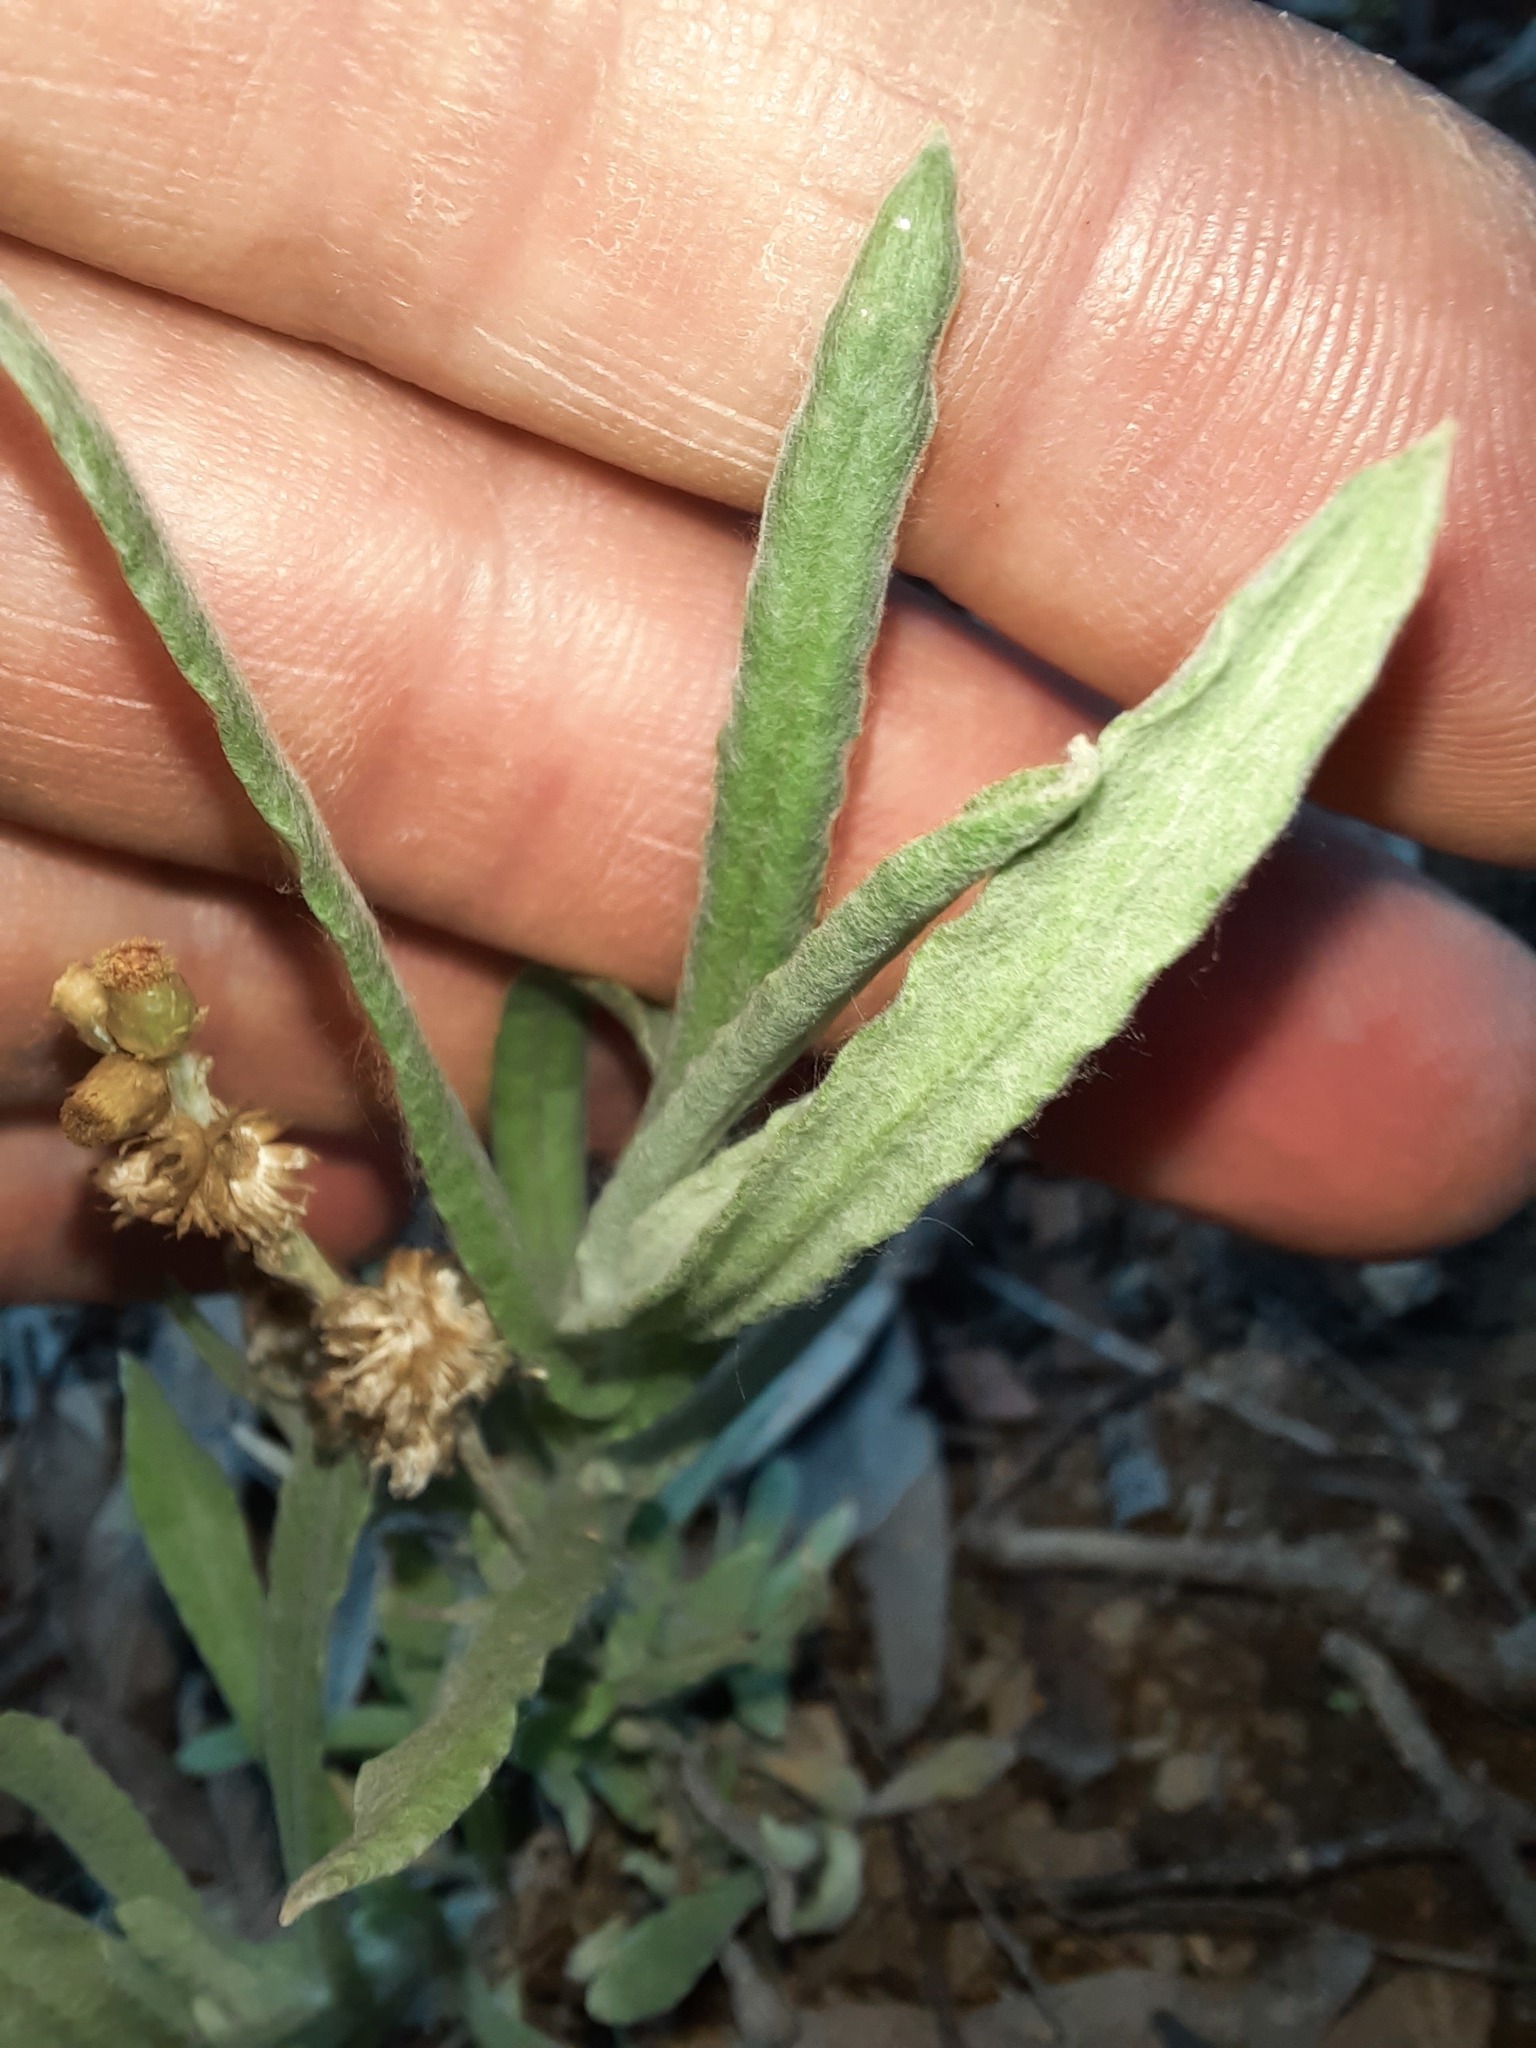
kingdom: Plantae
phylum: Tracheophyta
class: Magnoliopsida
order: Asterales
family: Asteraceae
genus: Helichrysum
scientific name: Helichrysum luteoalbum
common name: Daisy
